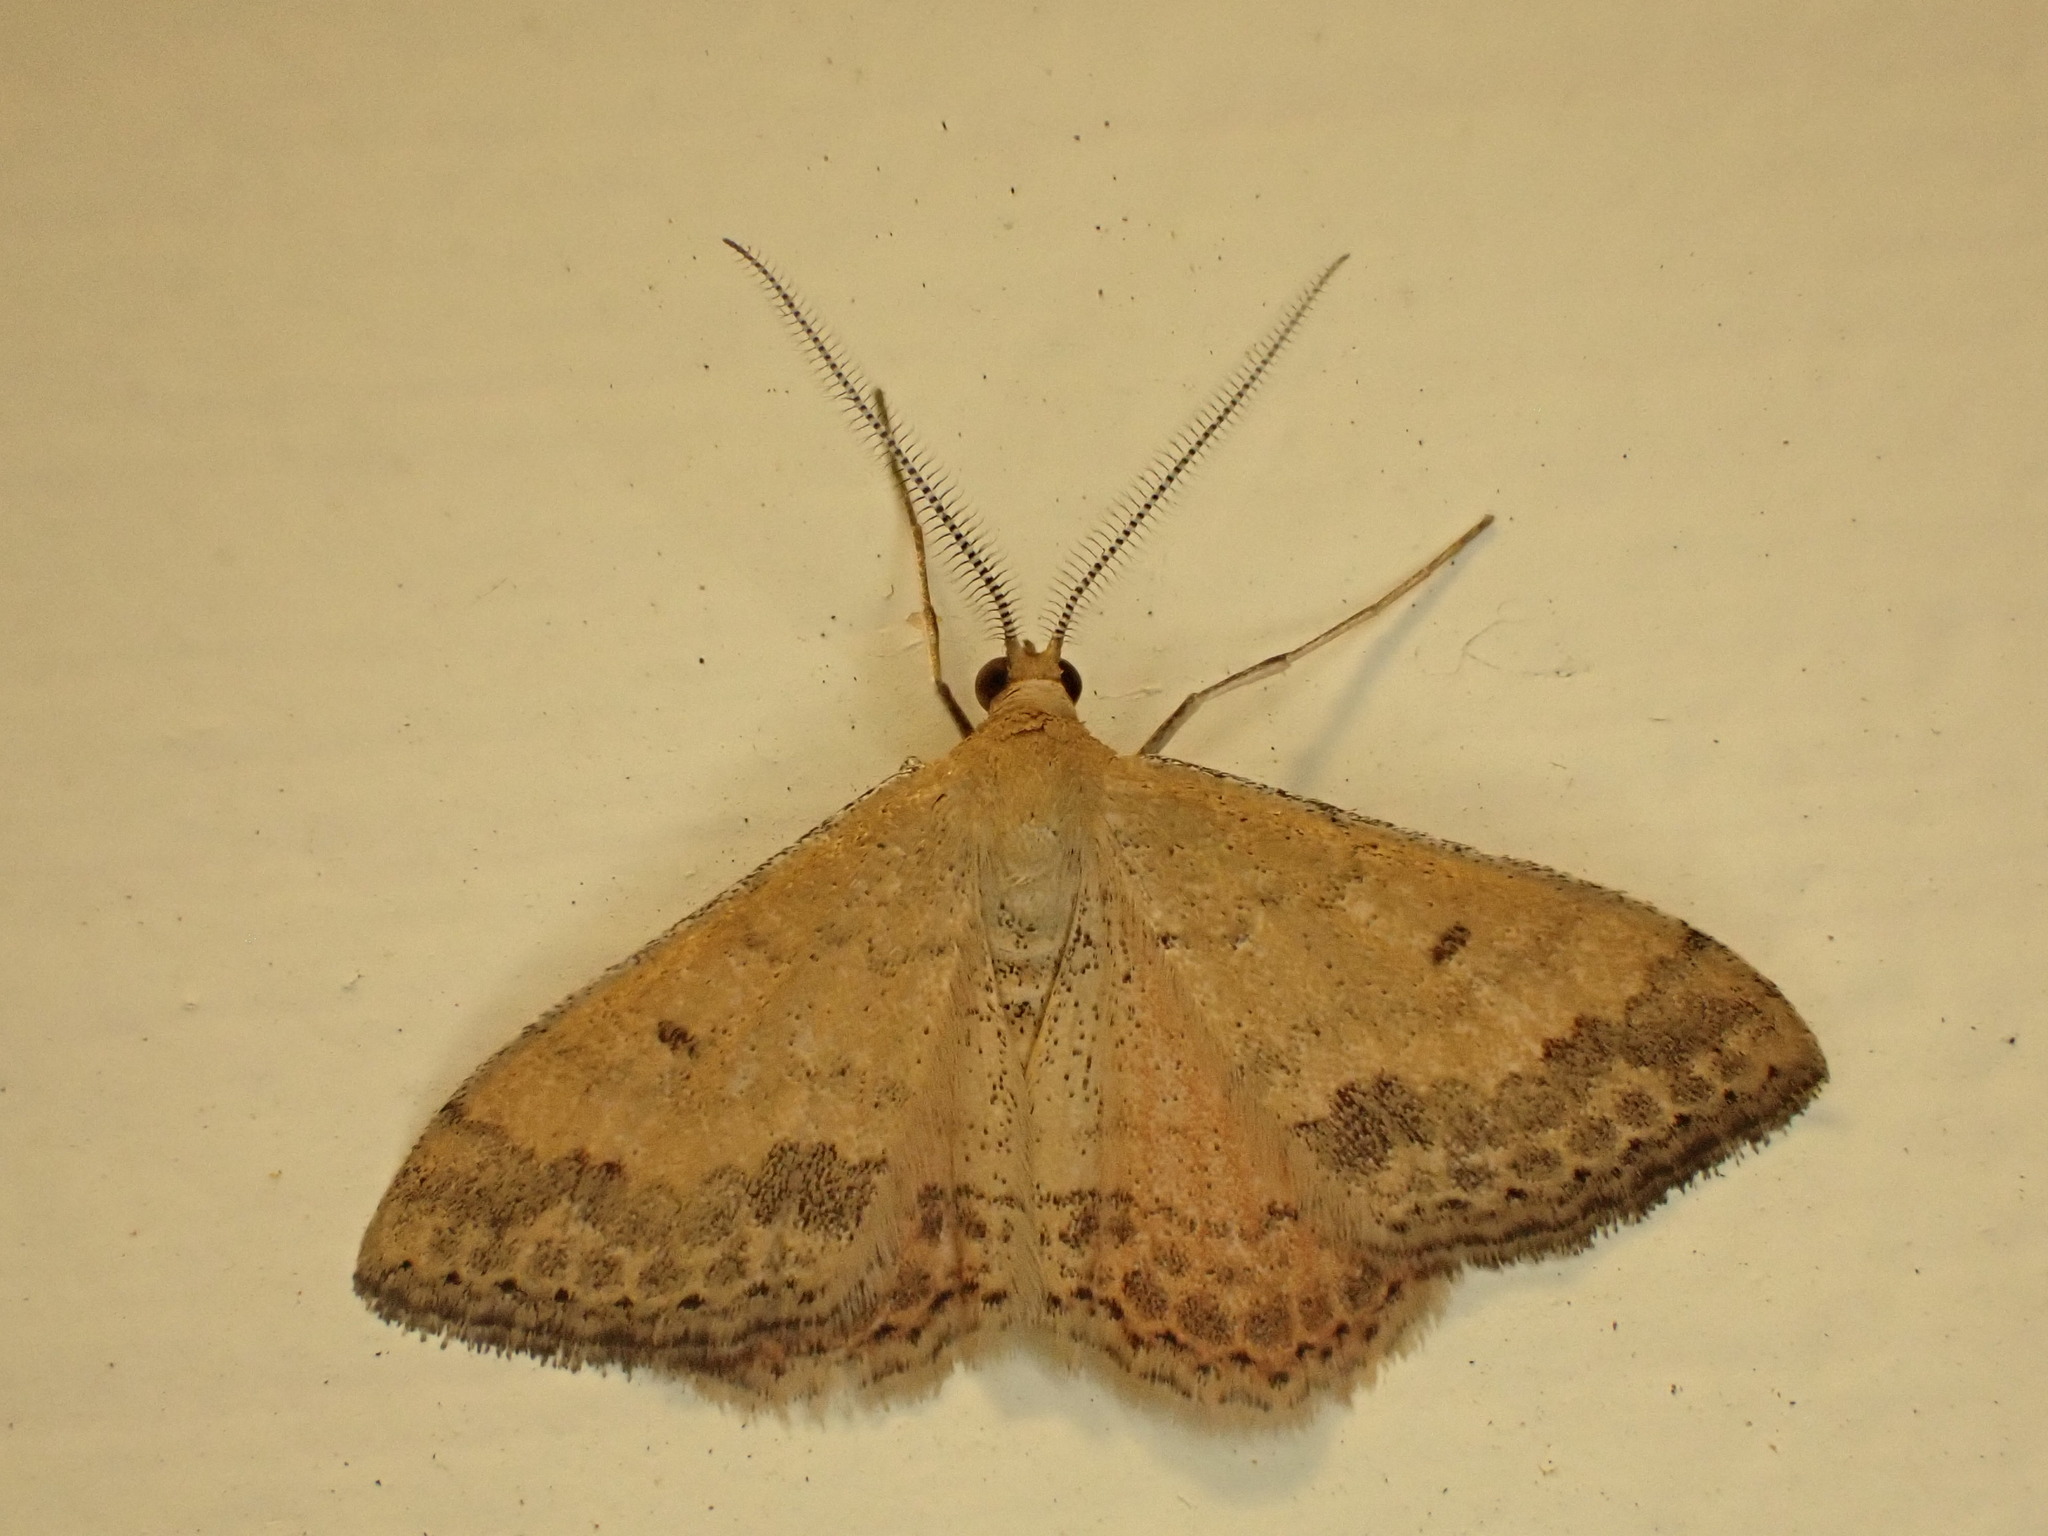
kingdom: Animalia
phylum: Arthropoda
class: Insecta
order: Lepidoptera
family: Geometridae
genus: Scopula
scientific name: Scopula rubraria
